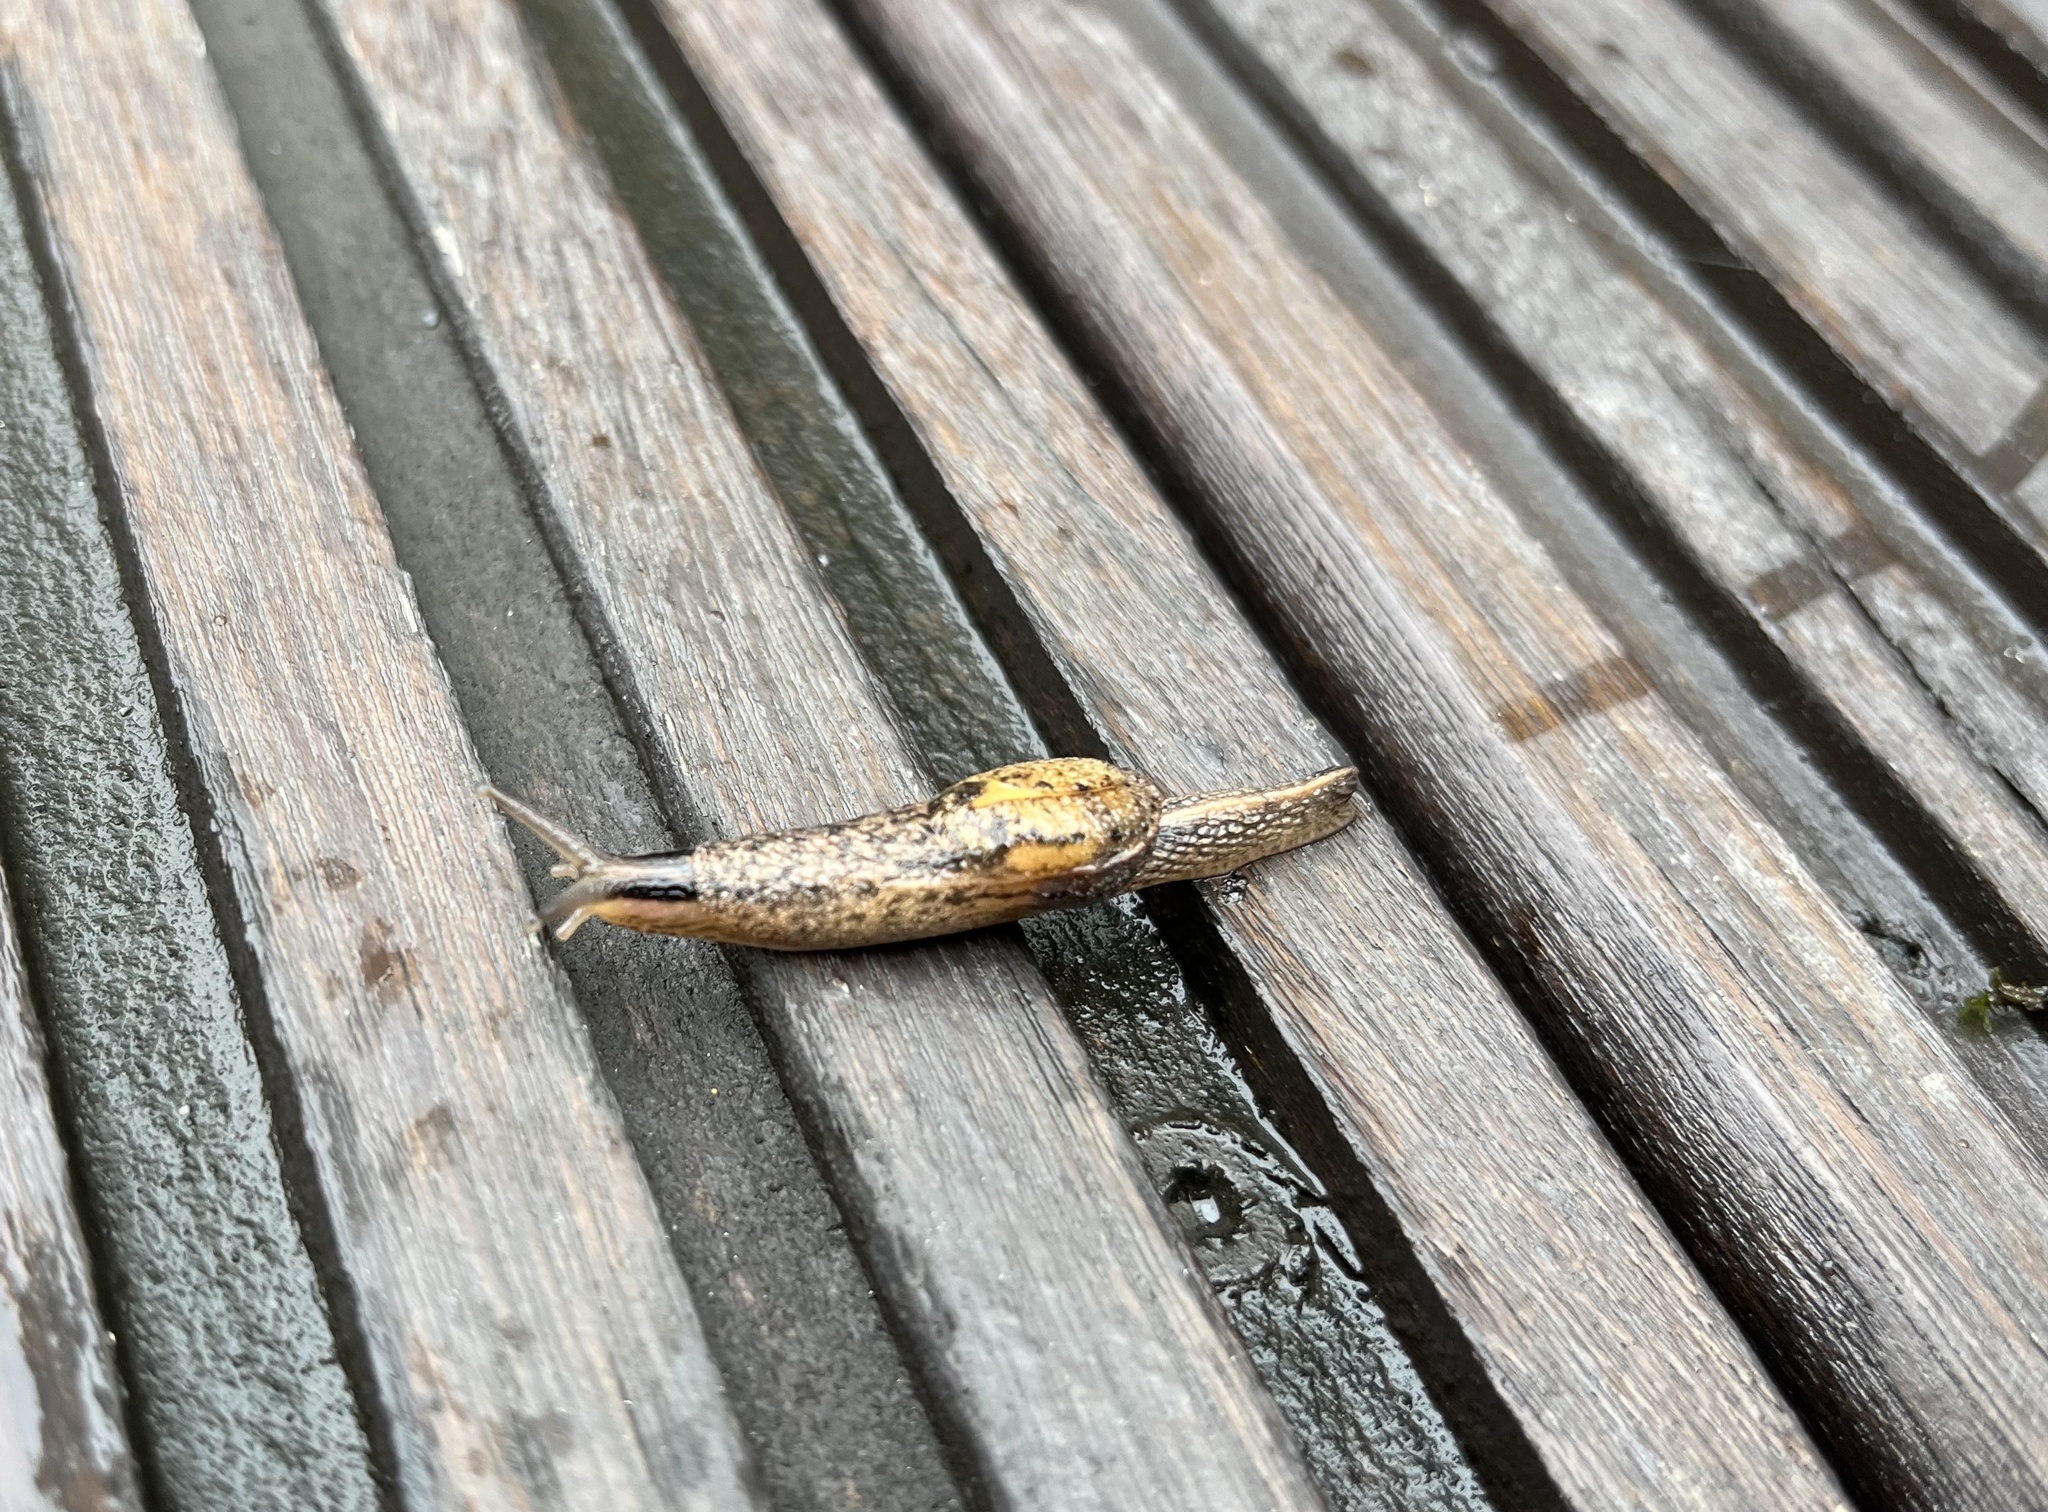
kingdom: Animalia
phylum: Mollusca
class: Gastropoda
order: Stylommatophora
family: Ariophantidae
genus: Parmarion
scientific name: Parmarion martensi
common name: Semi-slug
